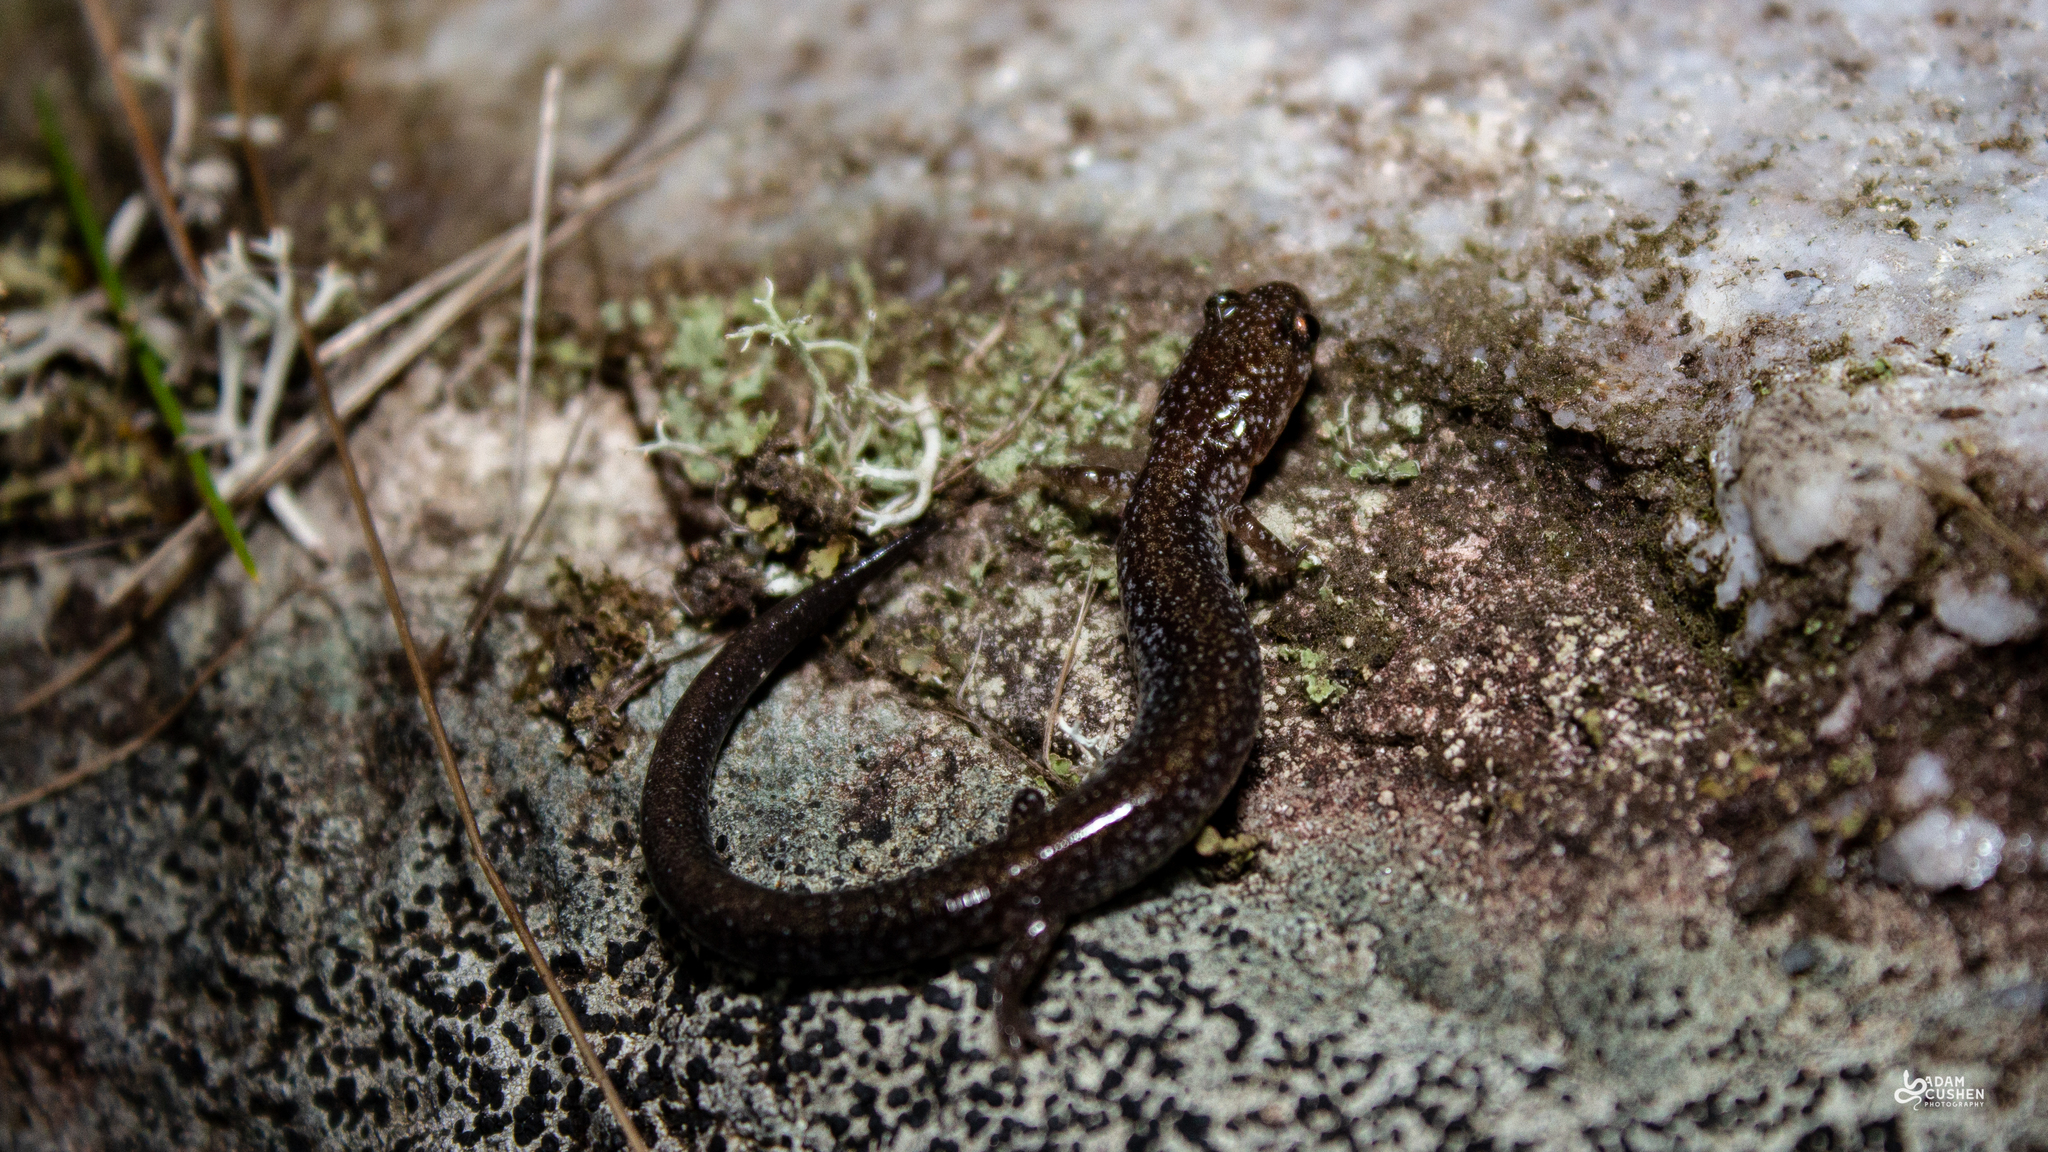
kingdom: Animalia
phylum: Chordata
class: Amphibia
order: Caudata
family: Plethodontidae
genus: Plethodon
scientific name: Plethodon cinereus
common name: Redback salamander
